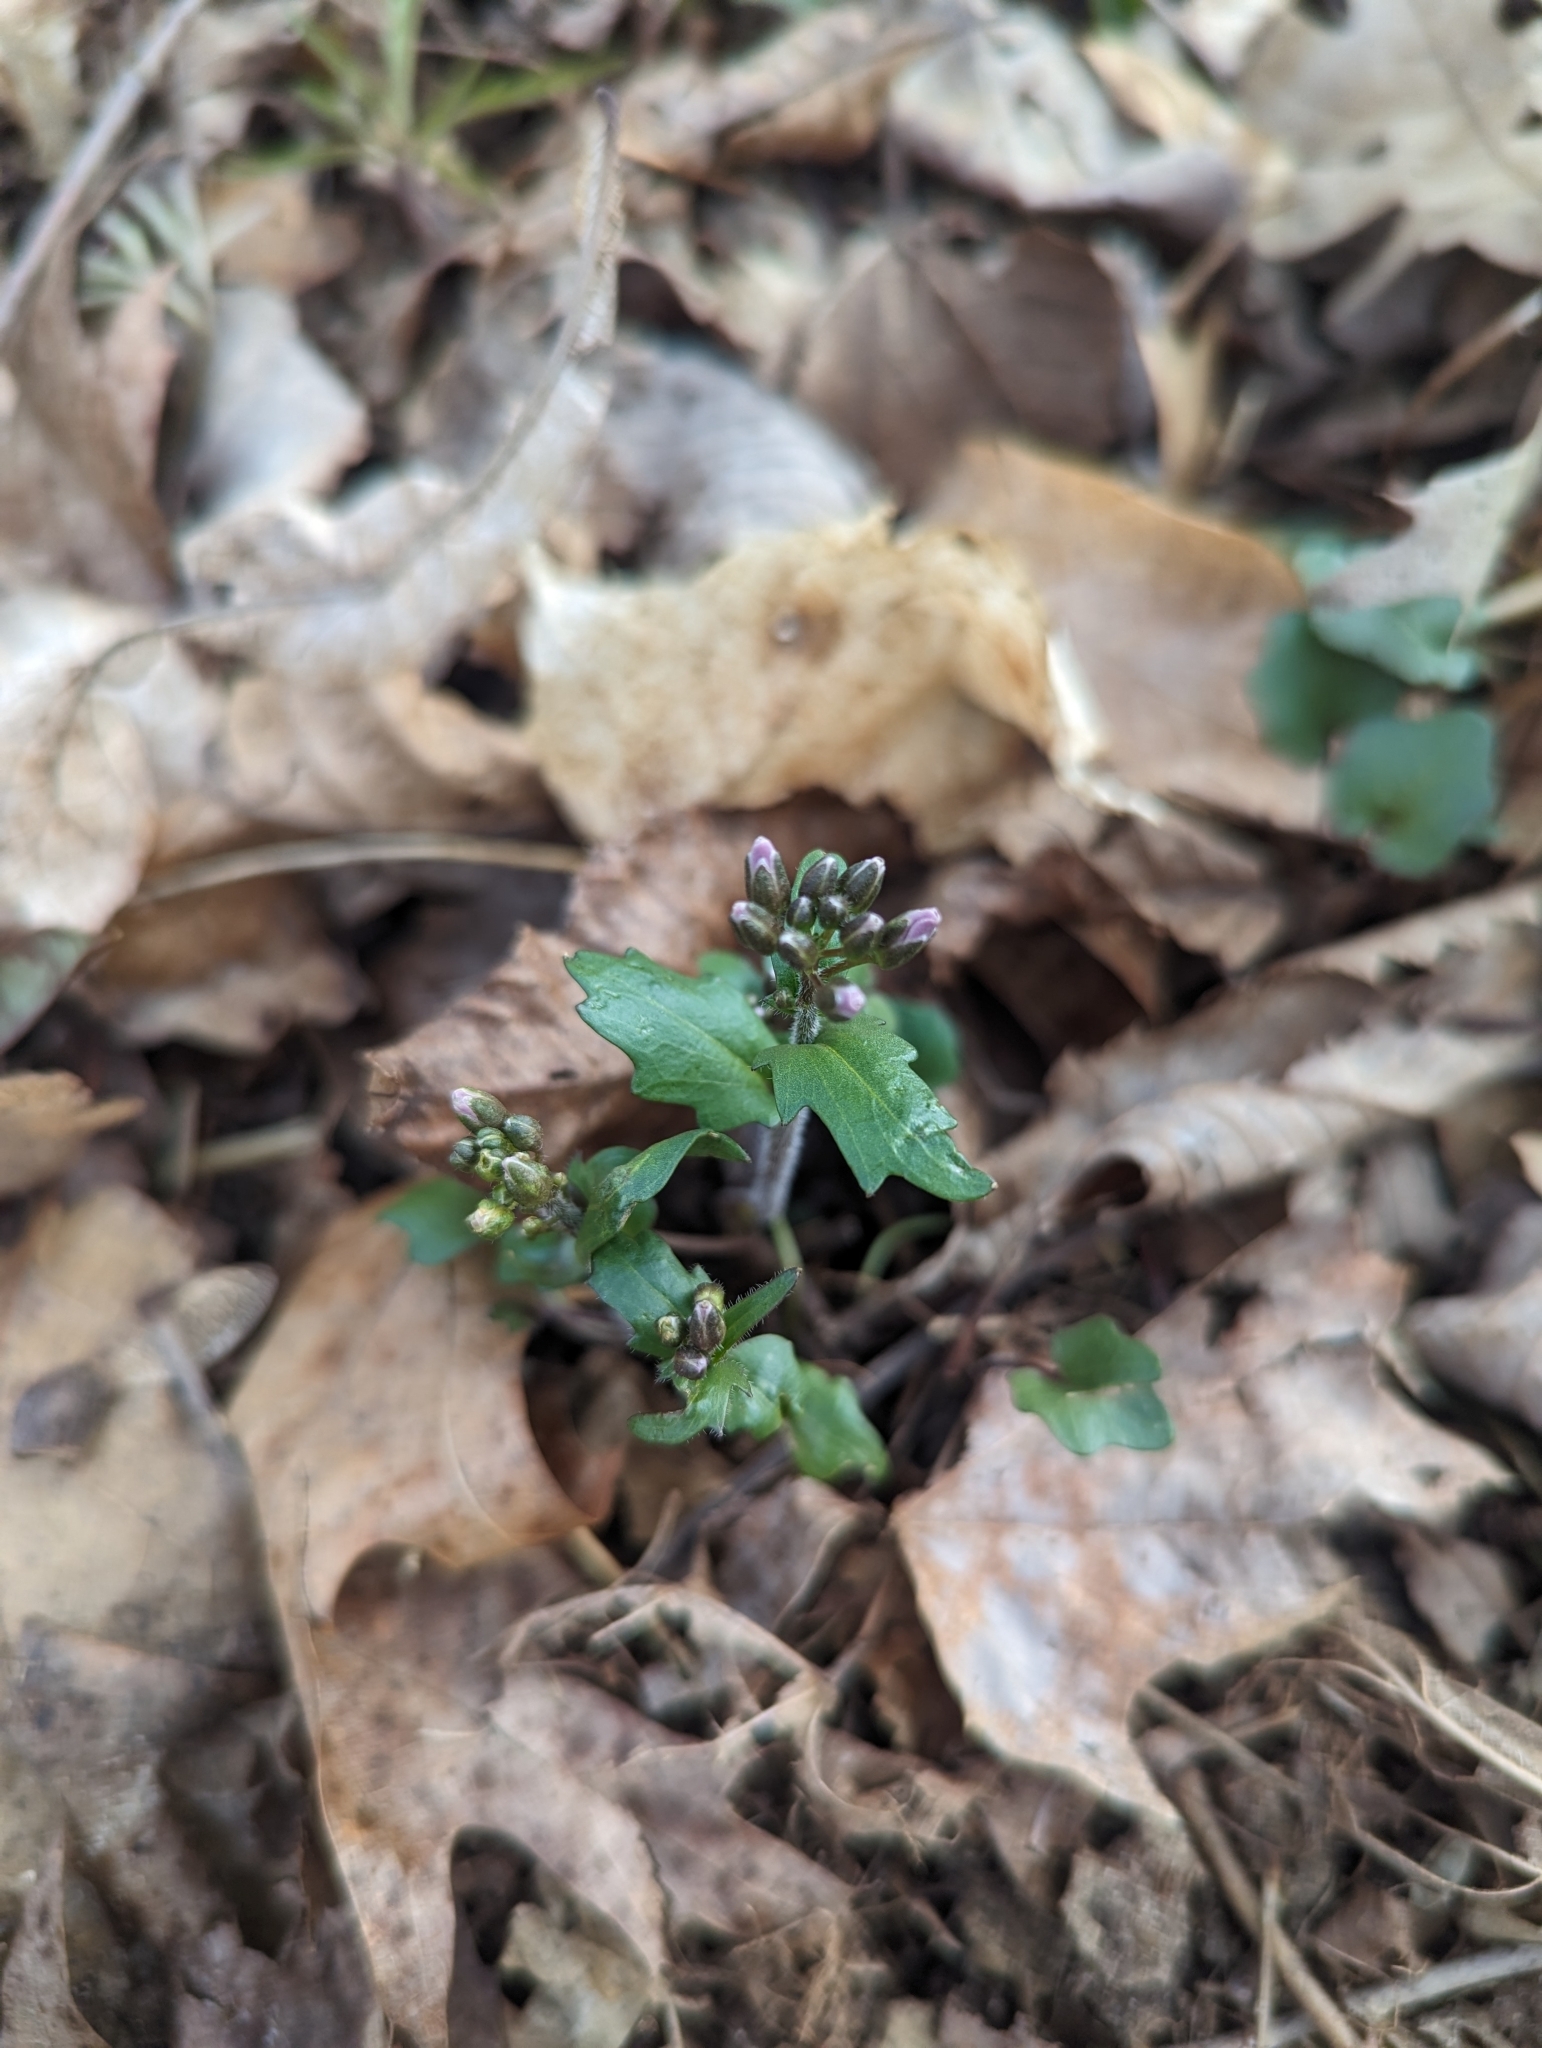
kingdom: Plantae
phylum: Tracheophyta
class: Magnoliopsida
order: Brassicales
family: Brassicaceae
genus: Cardamine
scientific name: Cardamine douglassii
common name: Purple cress
